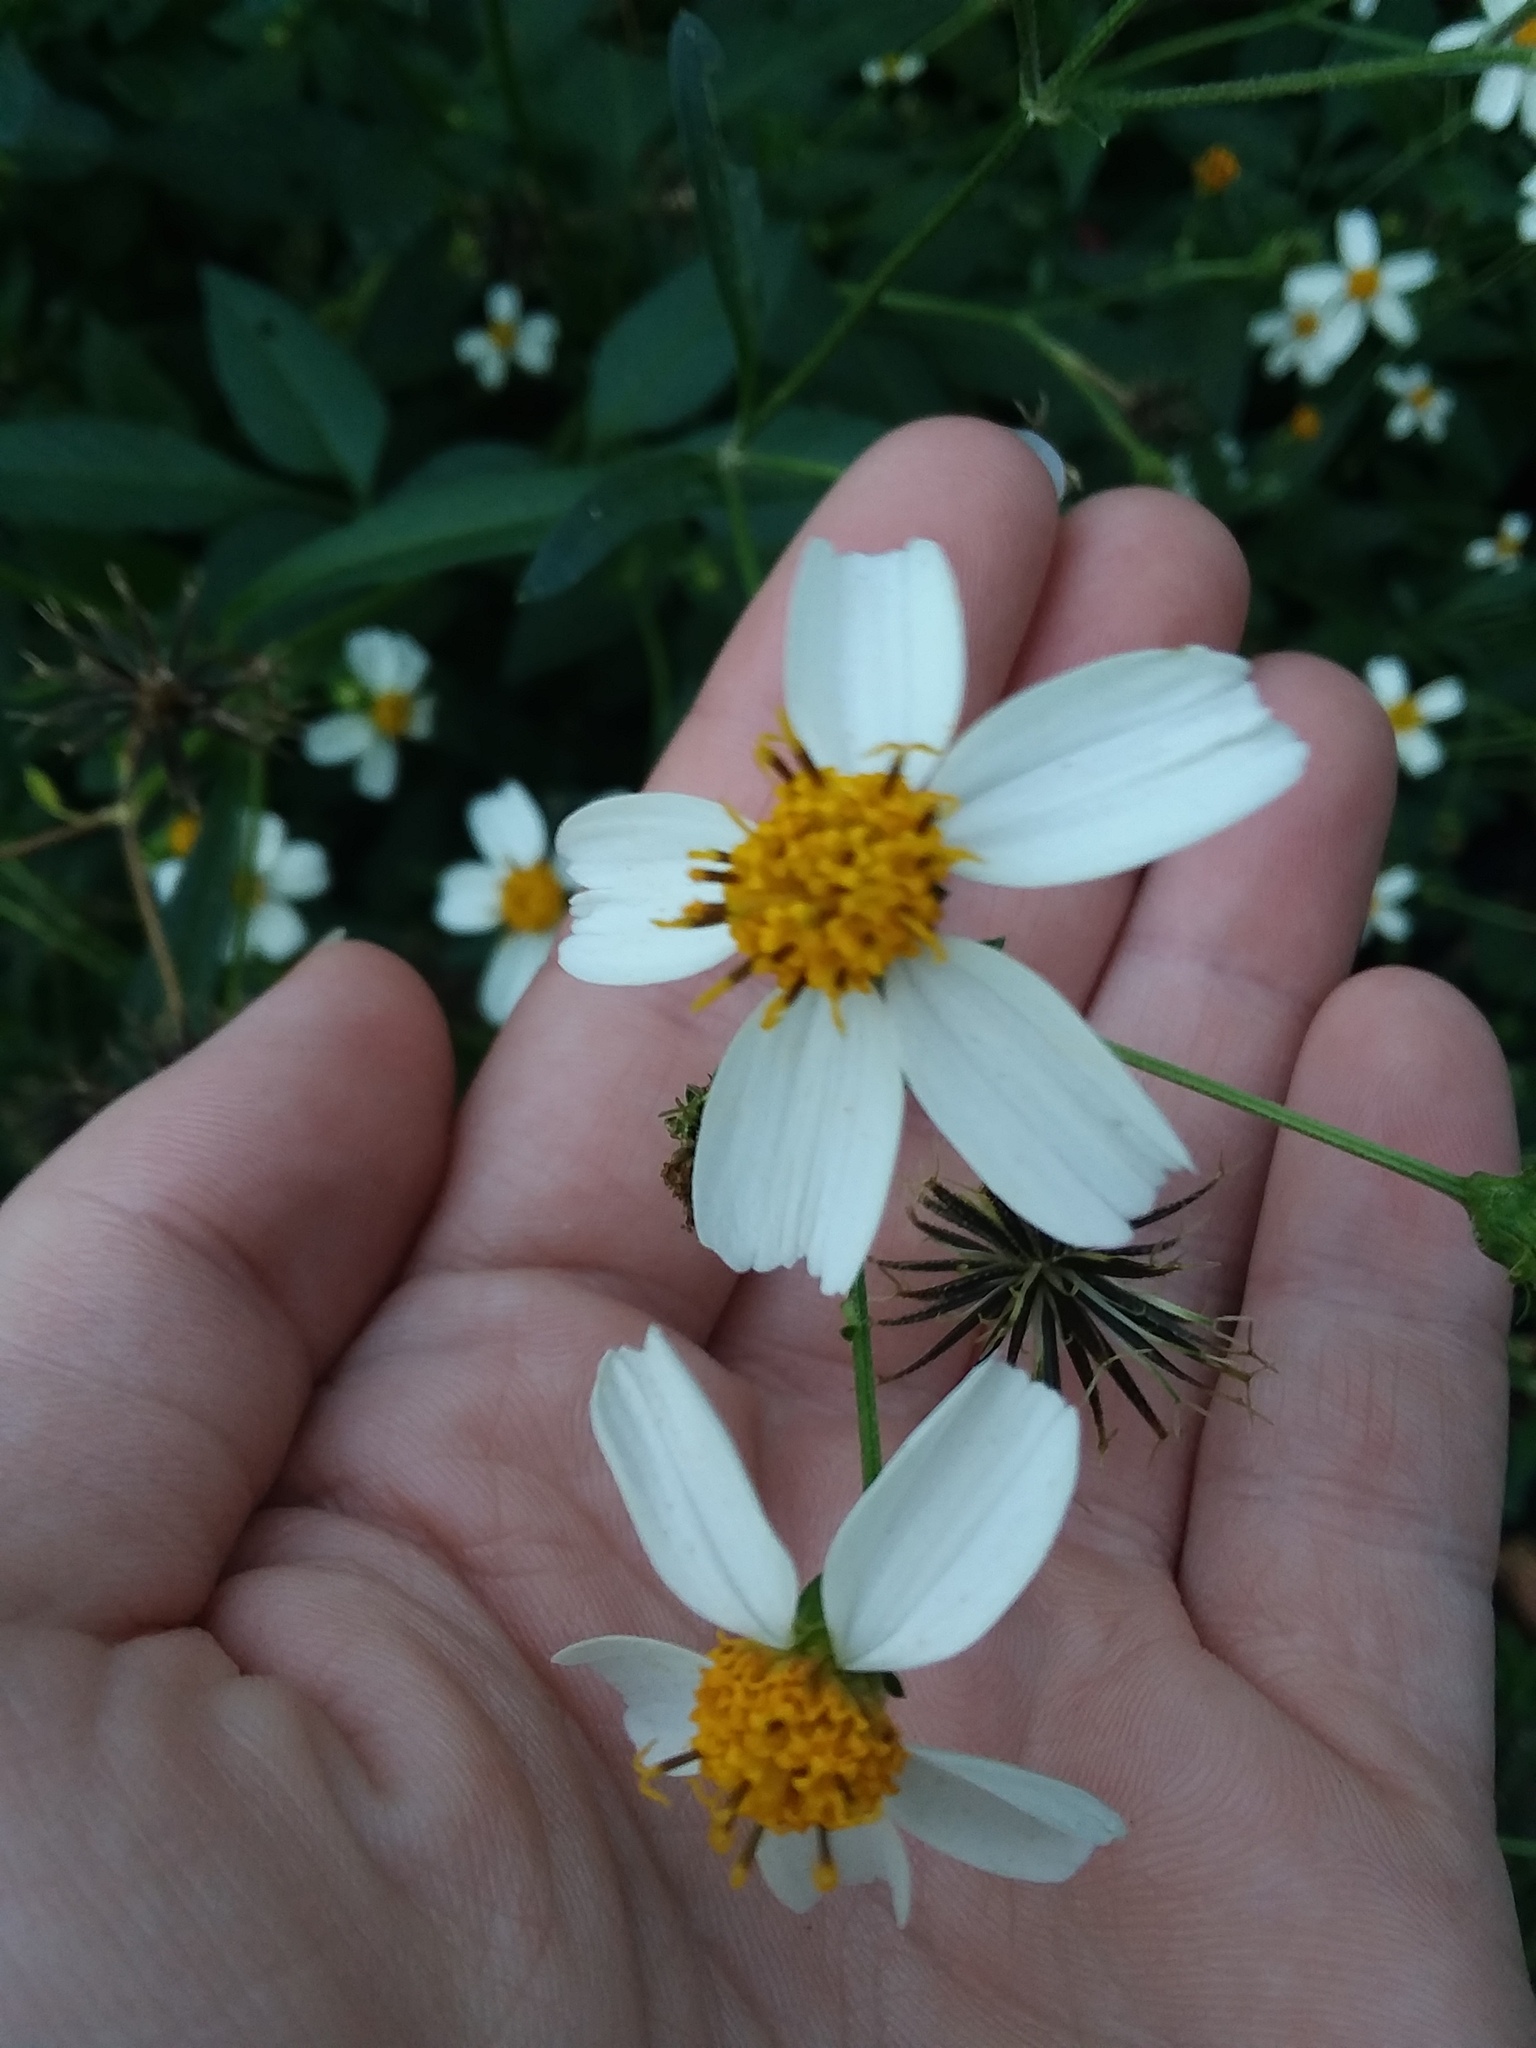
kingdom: Plantae
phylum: Tracheophyta
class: Magnoliopsida
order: Asterales
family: Asteraceae
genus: Bidens
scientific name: Bidens alba
